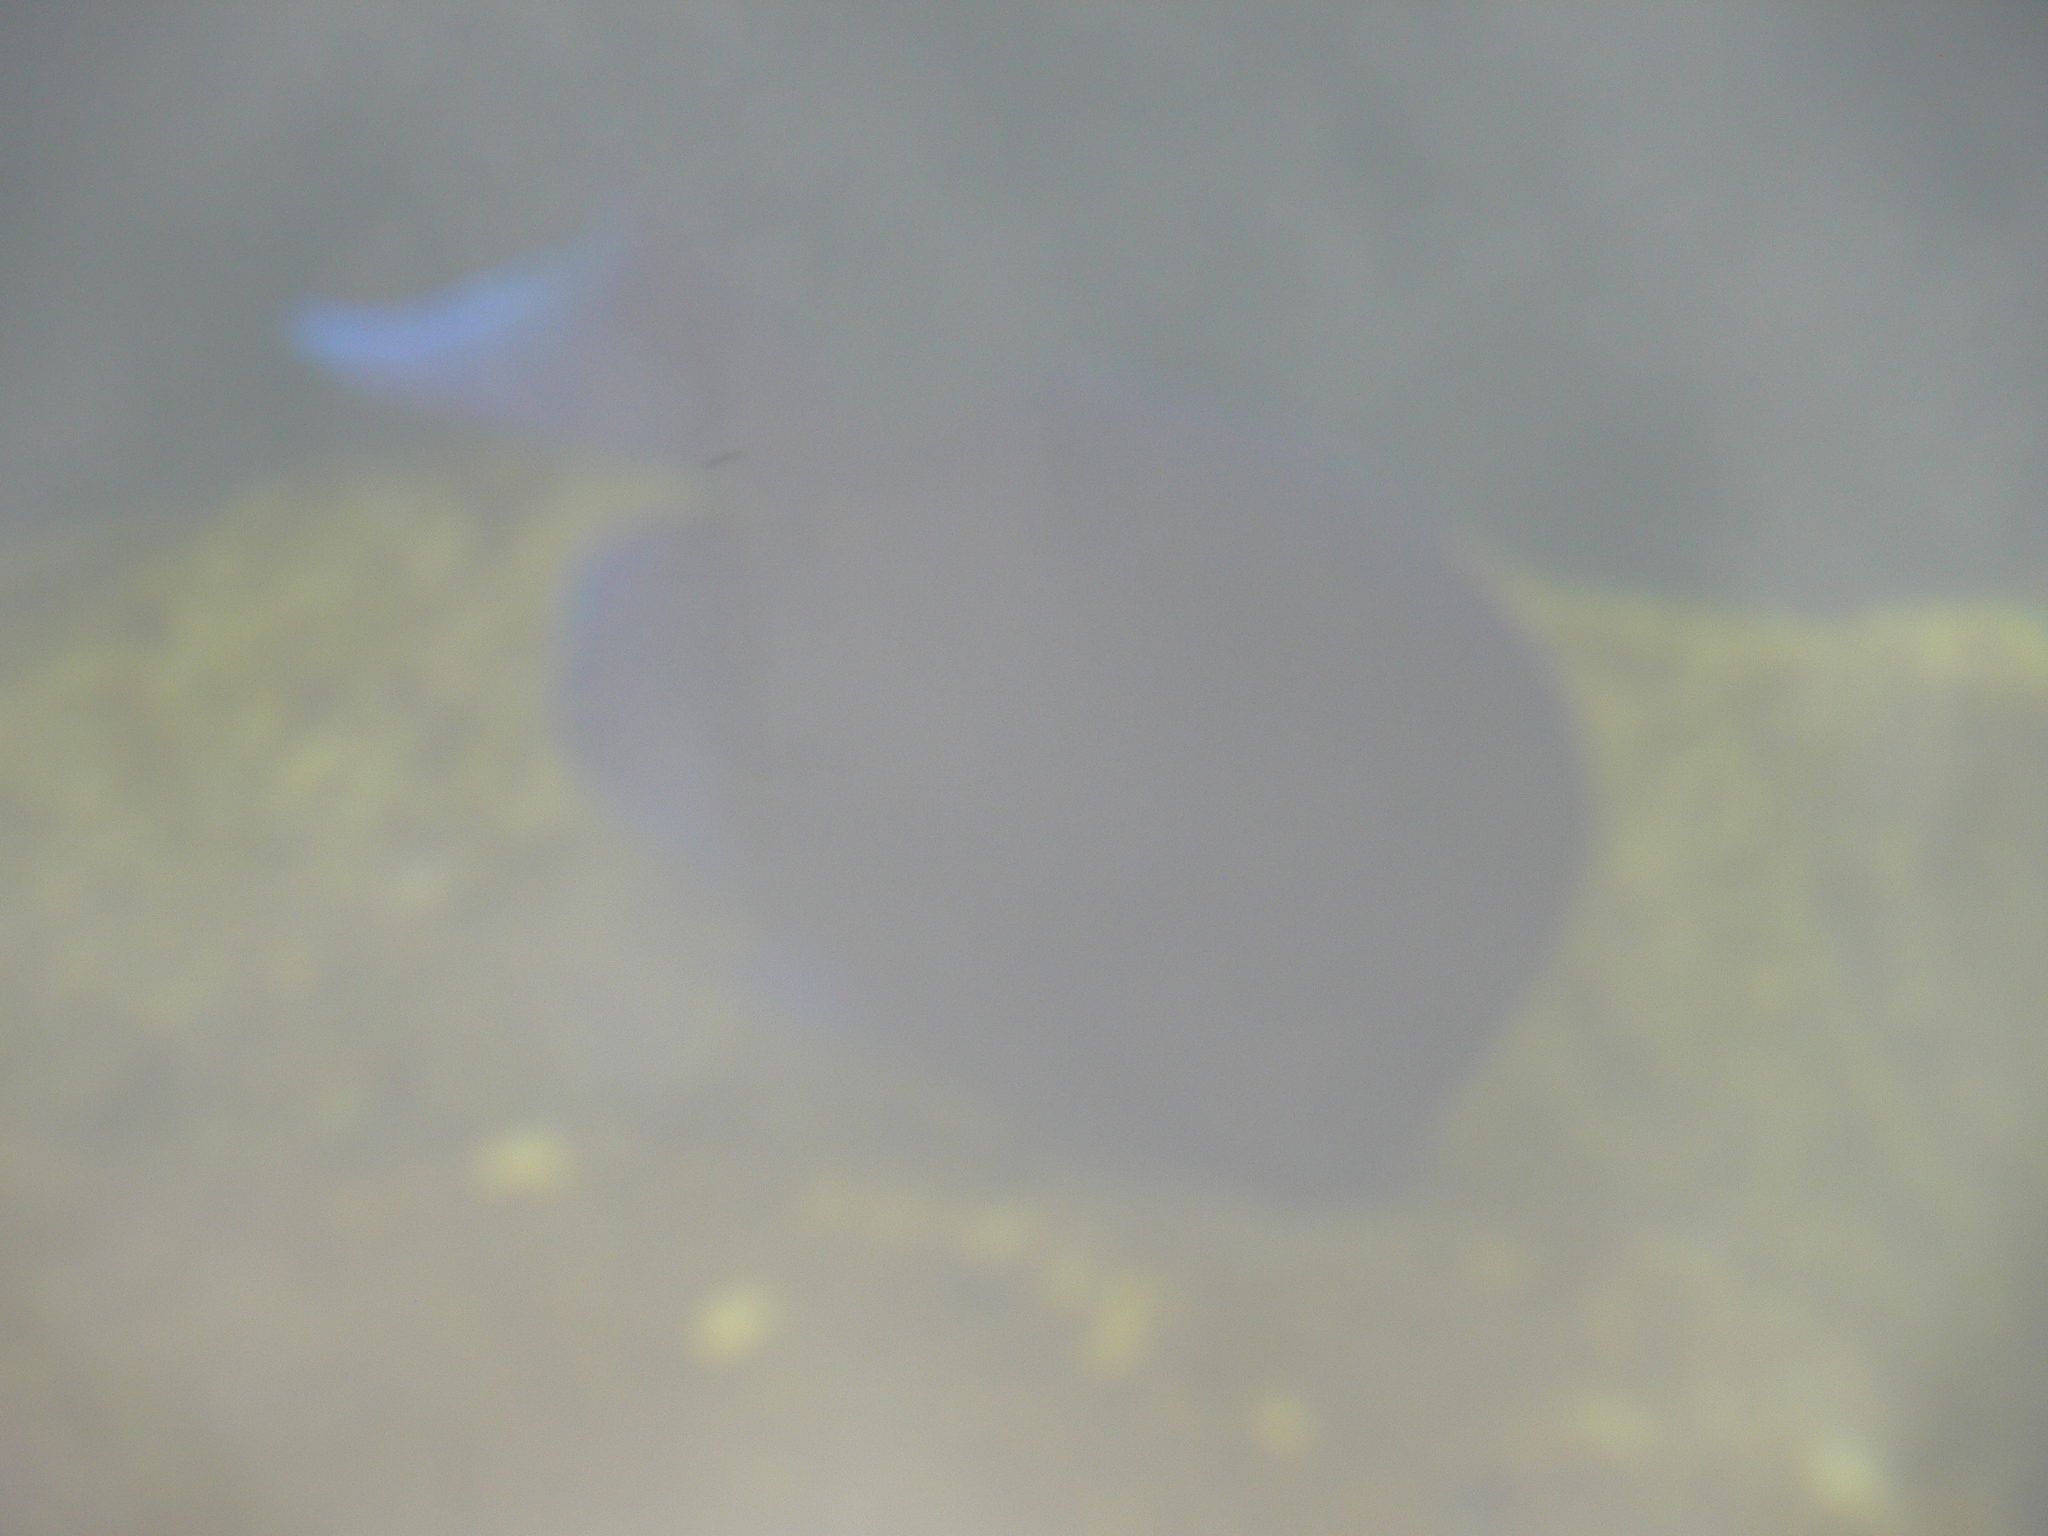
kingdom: Animalia
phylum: Chordata
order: Perciformes
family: Acanthuridae
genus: Acanthurus
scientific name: Acanthurus coeruleus
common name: Blue tang
